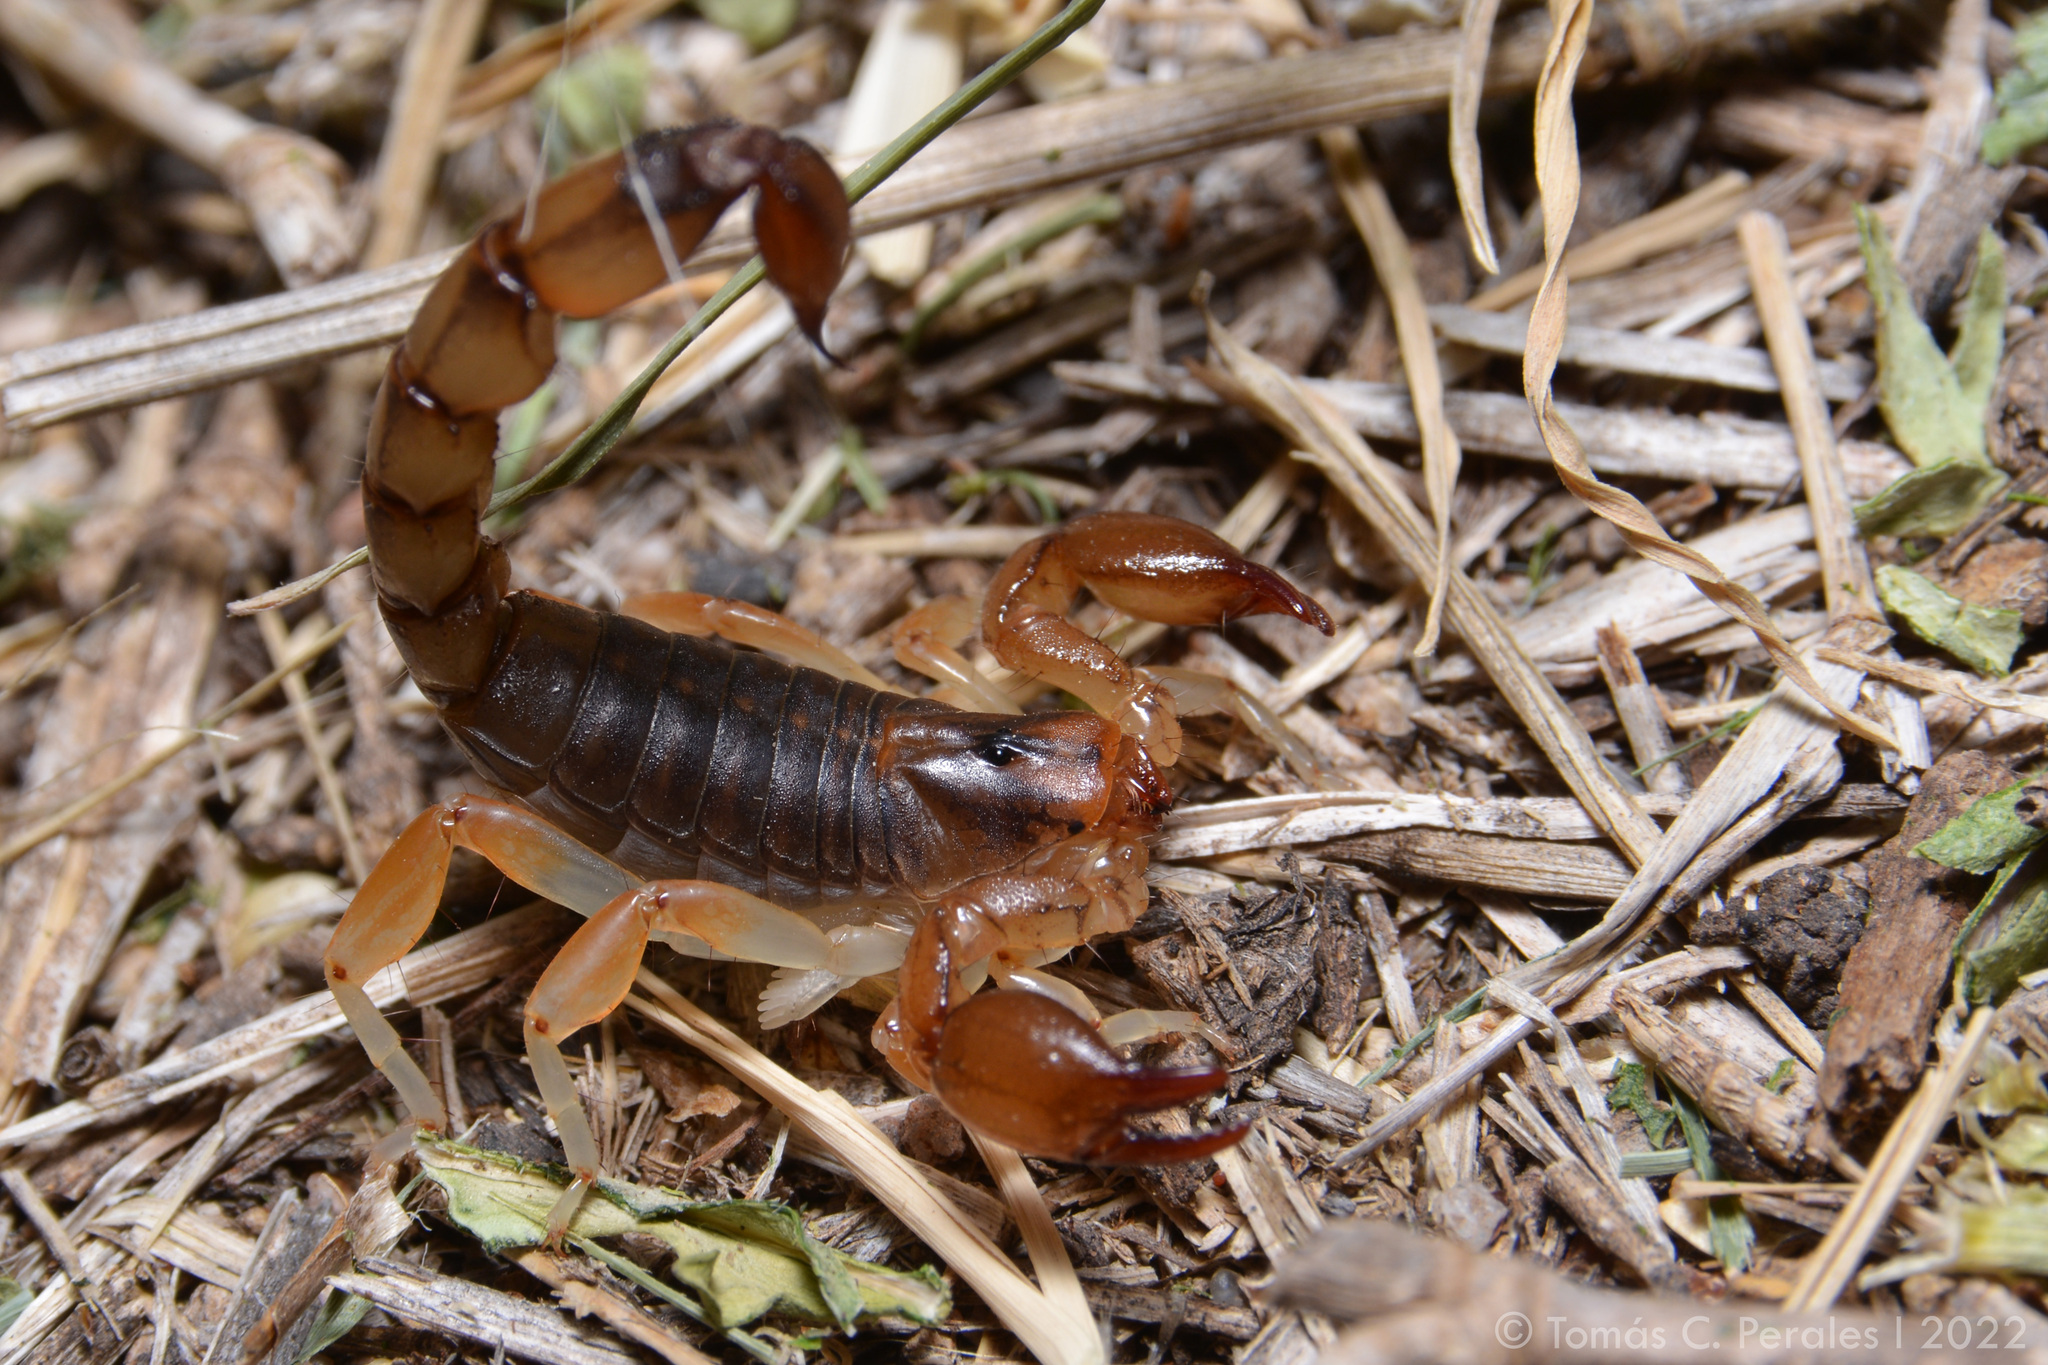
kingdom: Animalia
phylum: Arthropoda
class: Arachnida
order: Scorpiones
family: Bothriuridae
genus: Bothriurus
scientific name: Bothriurus cordubensis
